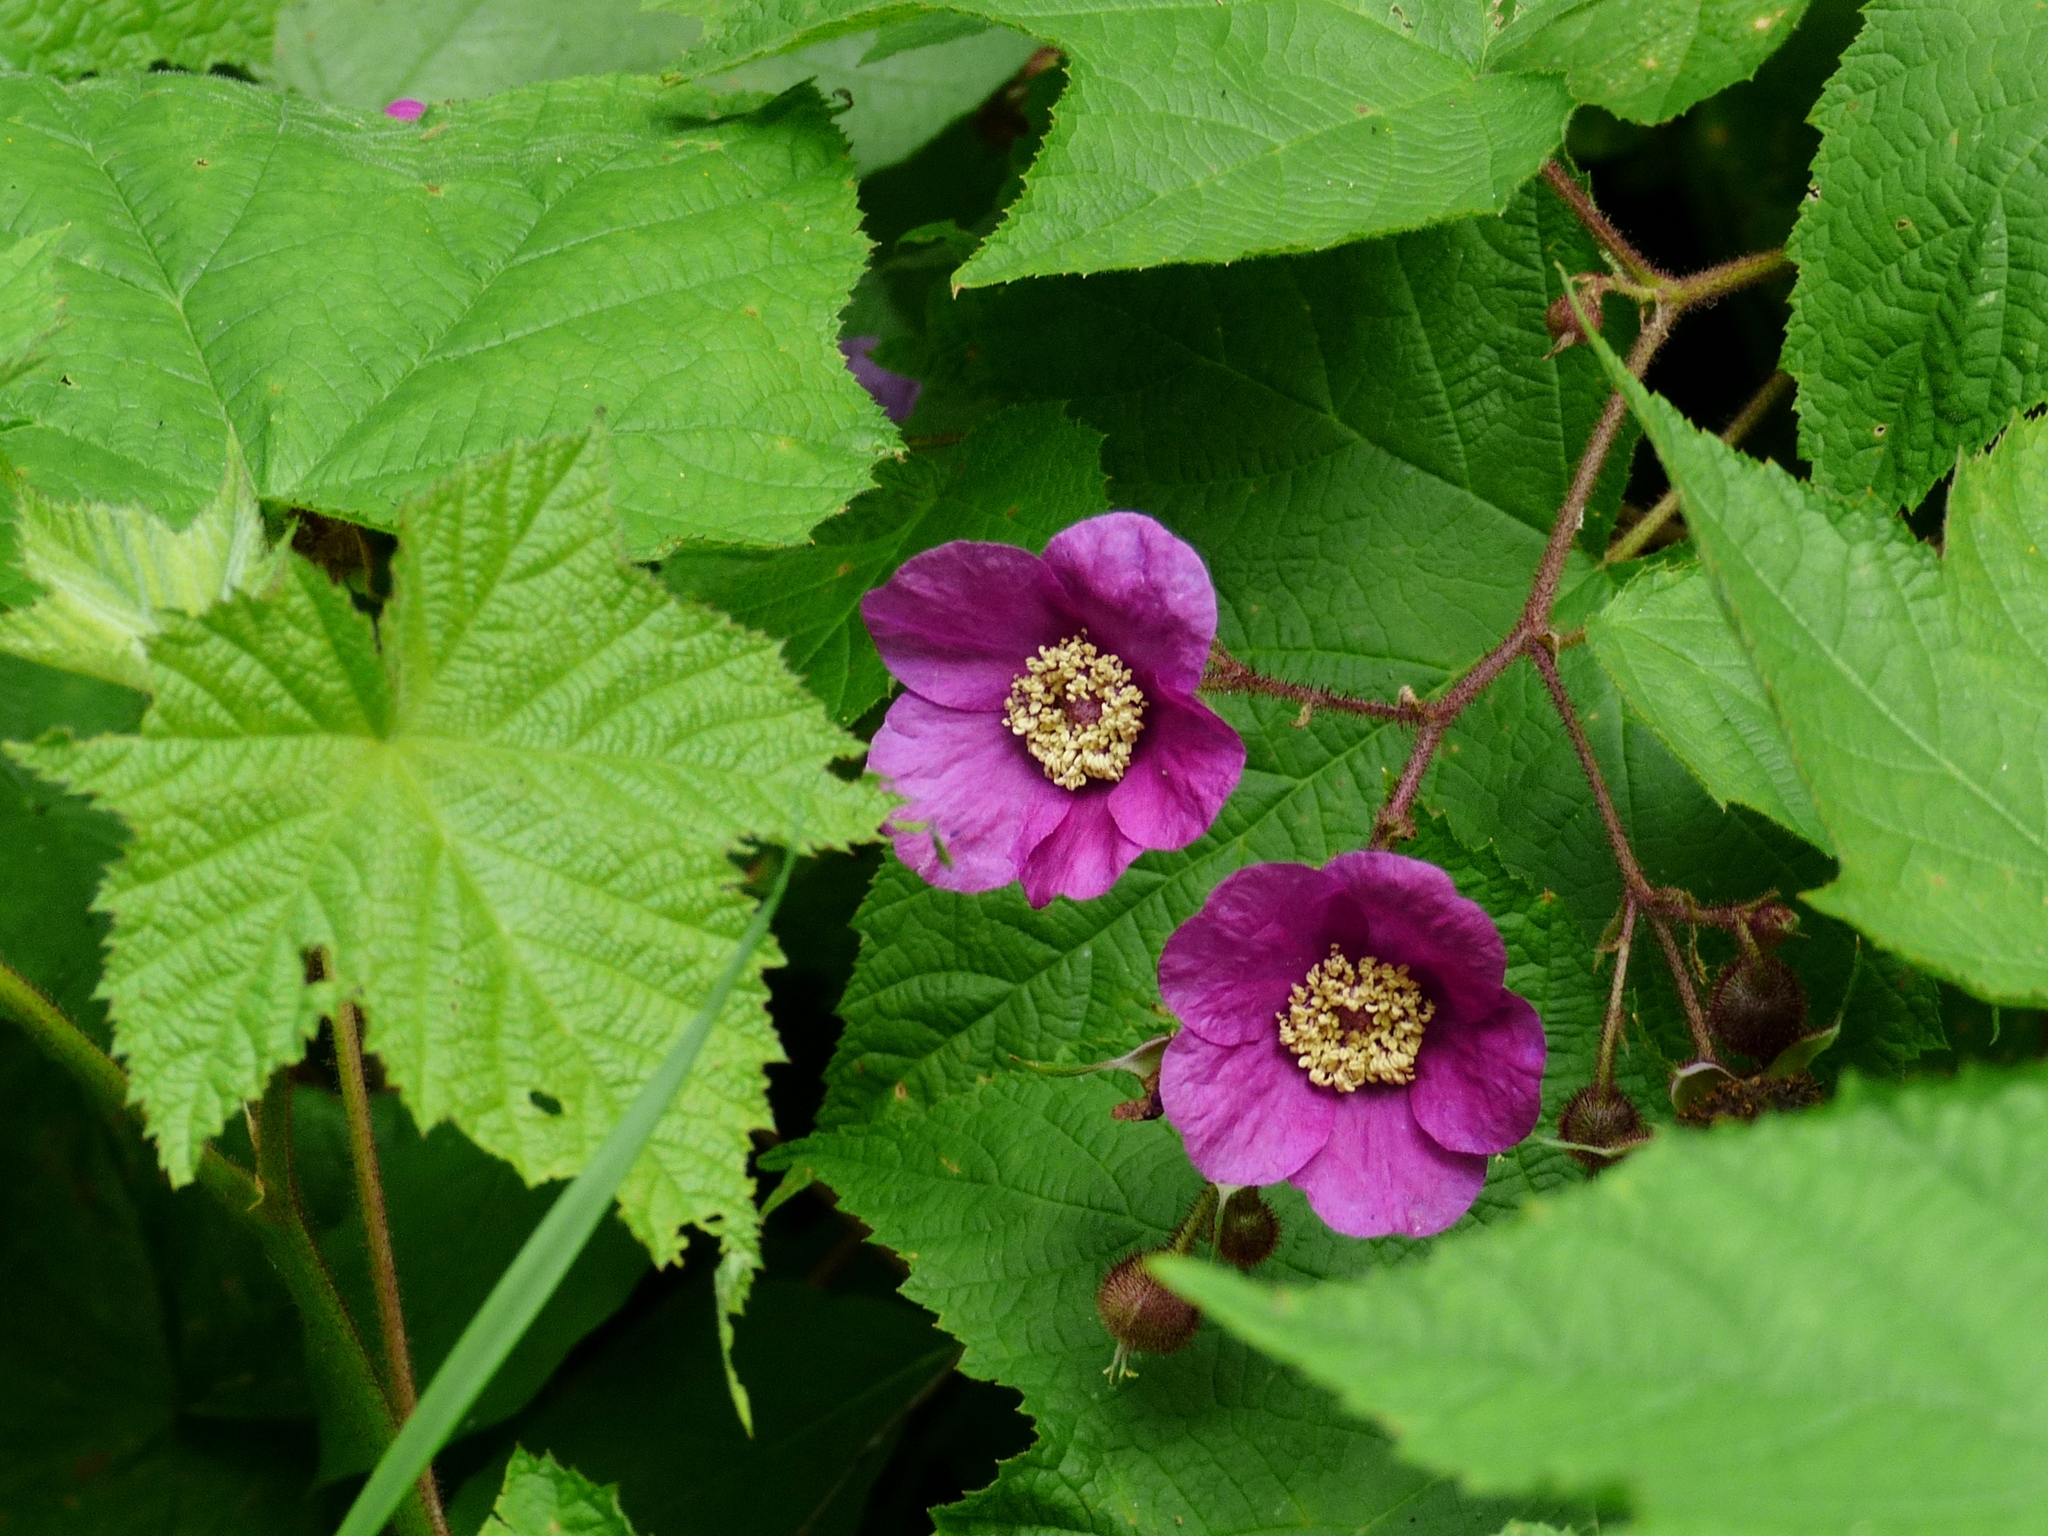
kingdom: Plantae
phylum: Tracheophyta
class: Magnoliopsida
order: Rosales
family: Rosaceae
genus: Rubus
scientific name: Rubus odoratus
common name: Purple-flowered raspberry
